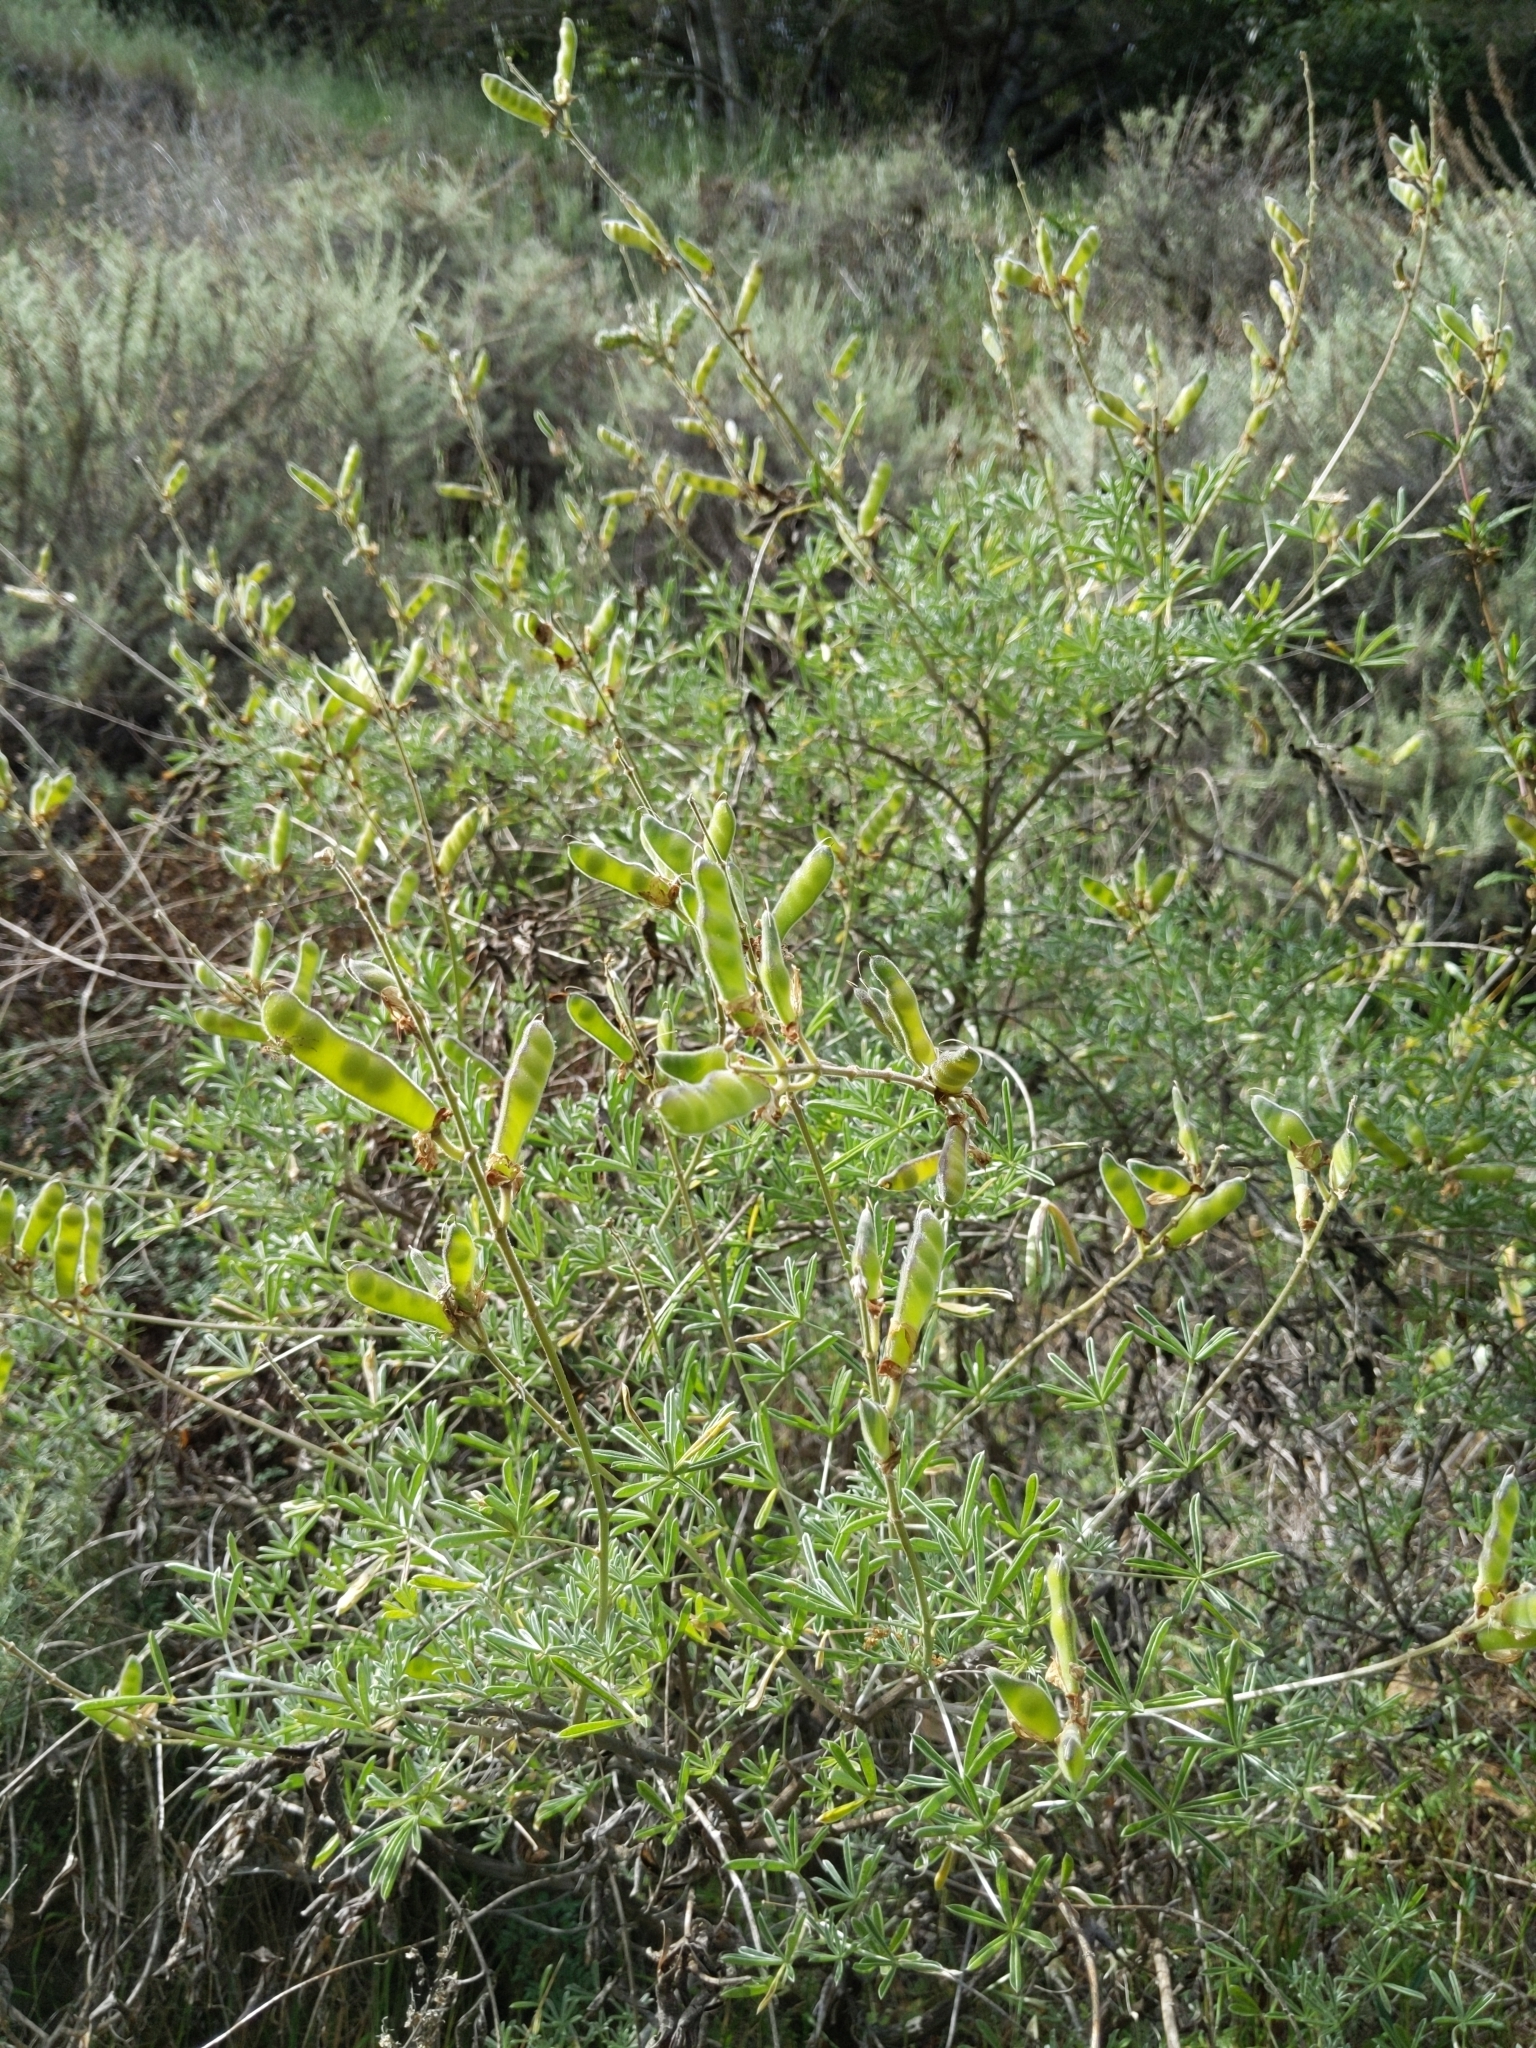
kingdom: Plantae
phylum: Tracheophyta
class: Magnoliopsida
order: Fabales
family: Fabaceae
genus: Lupinus
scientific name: Lupinus albifrons
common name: Foothill lupine
